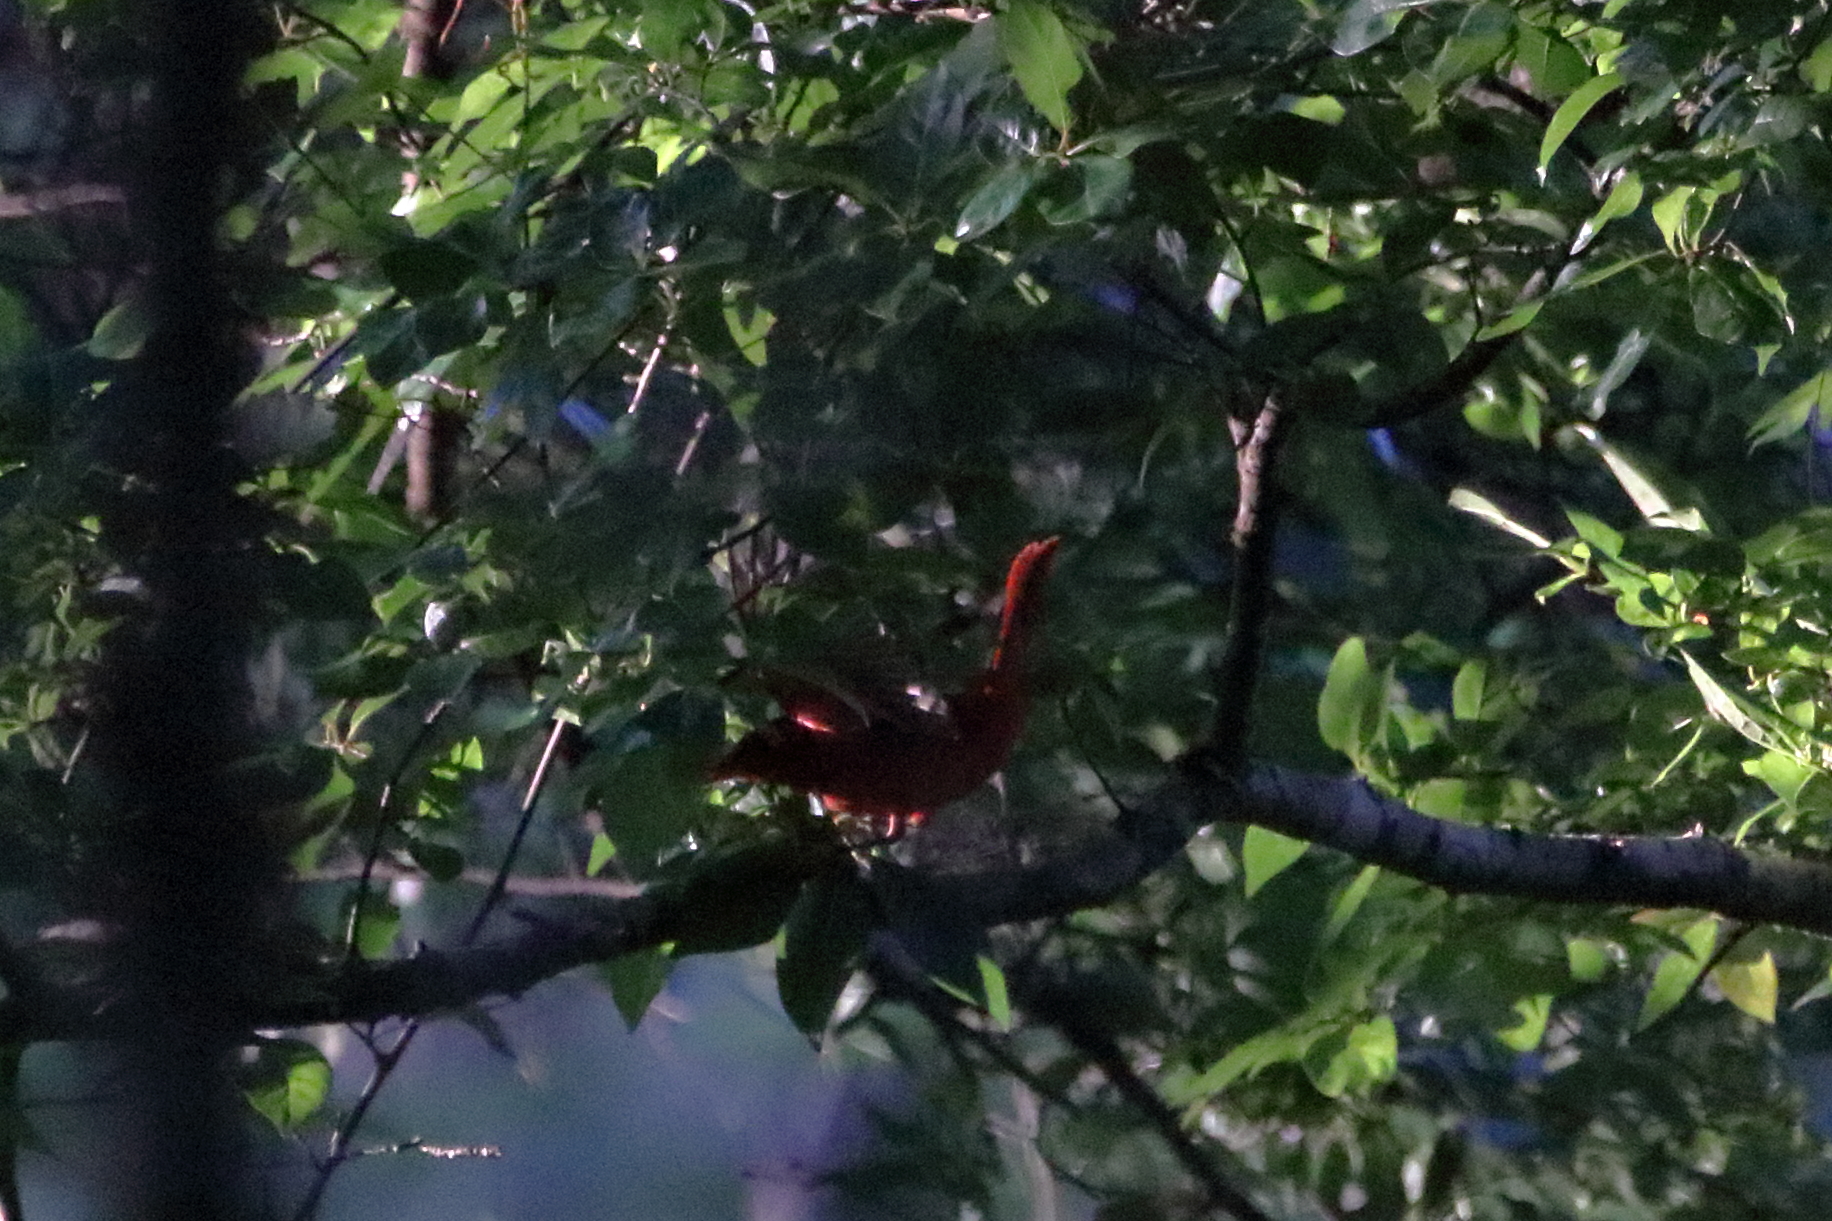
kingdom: Animalia
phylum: Chordata
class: Aves
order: Passeriformes
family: Cardinalidae
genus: Piranga
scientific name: Piranga rubra
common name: Summer tanager
